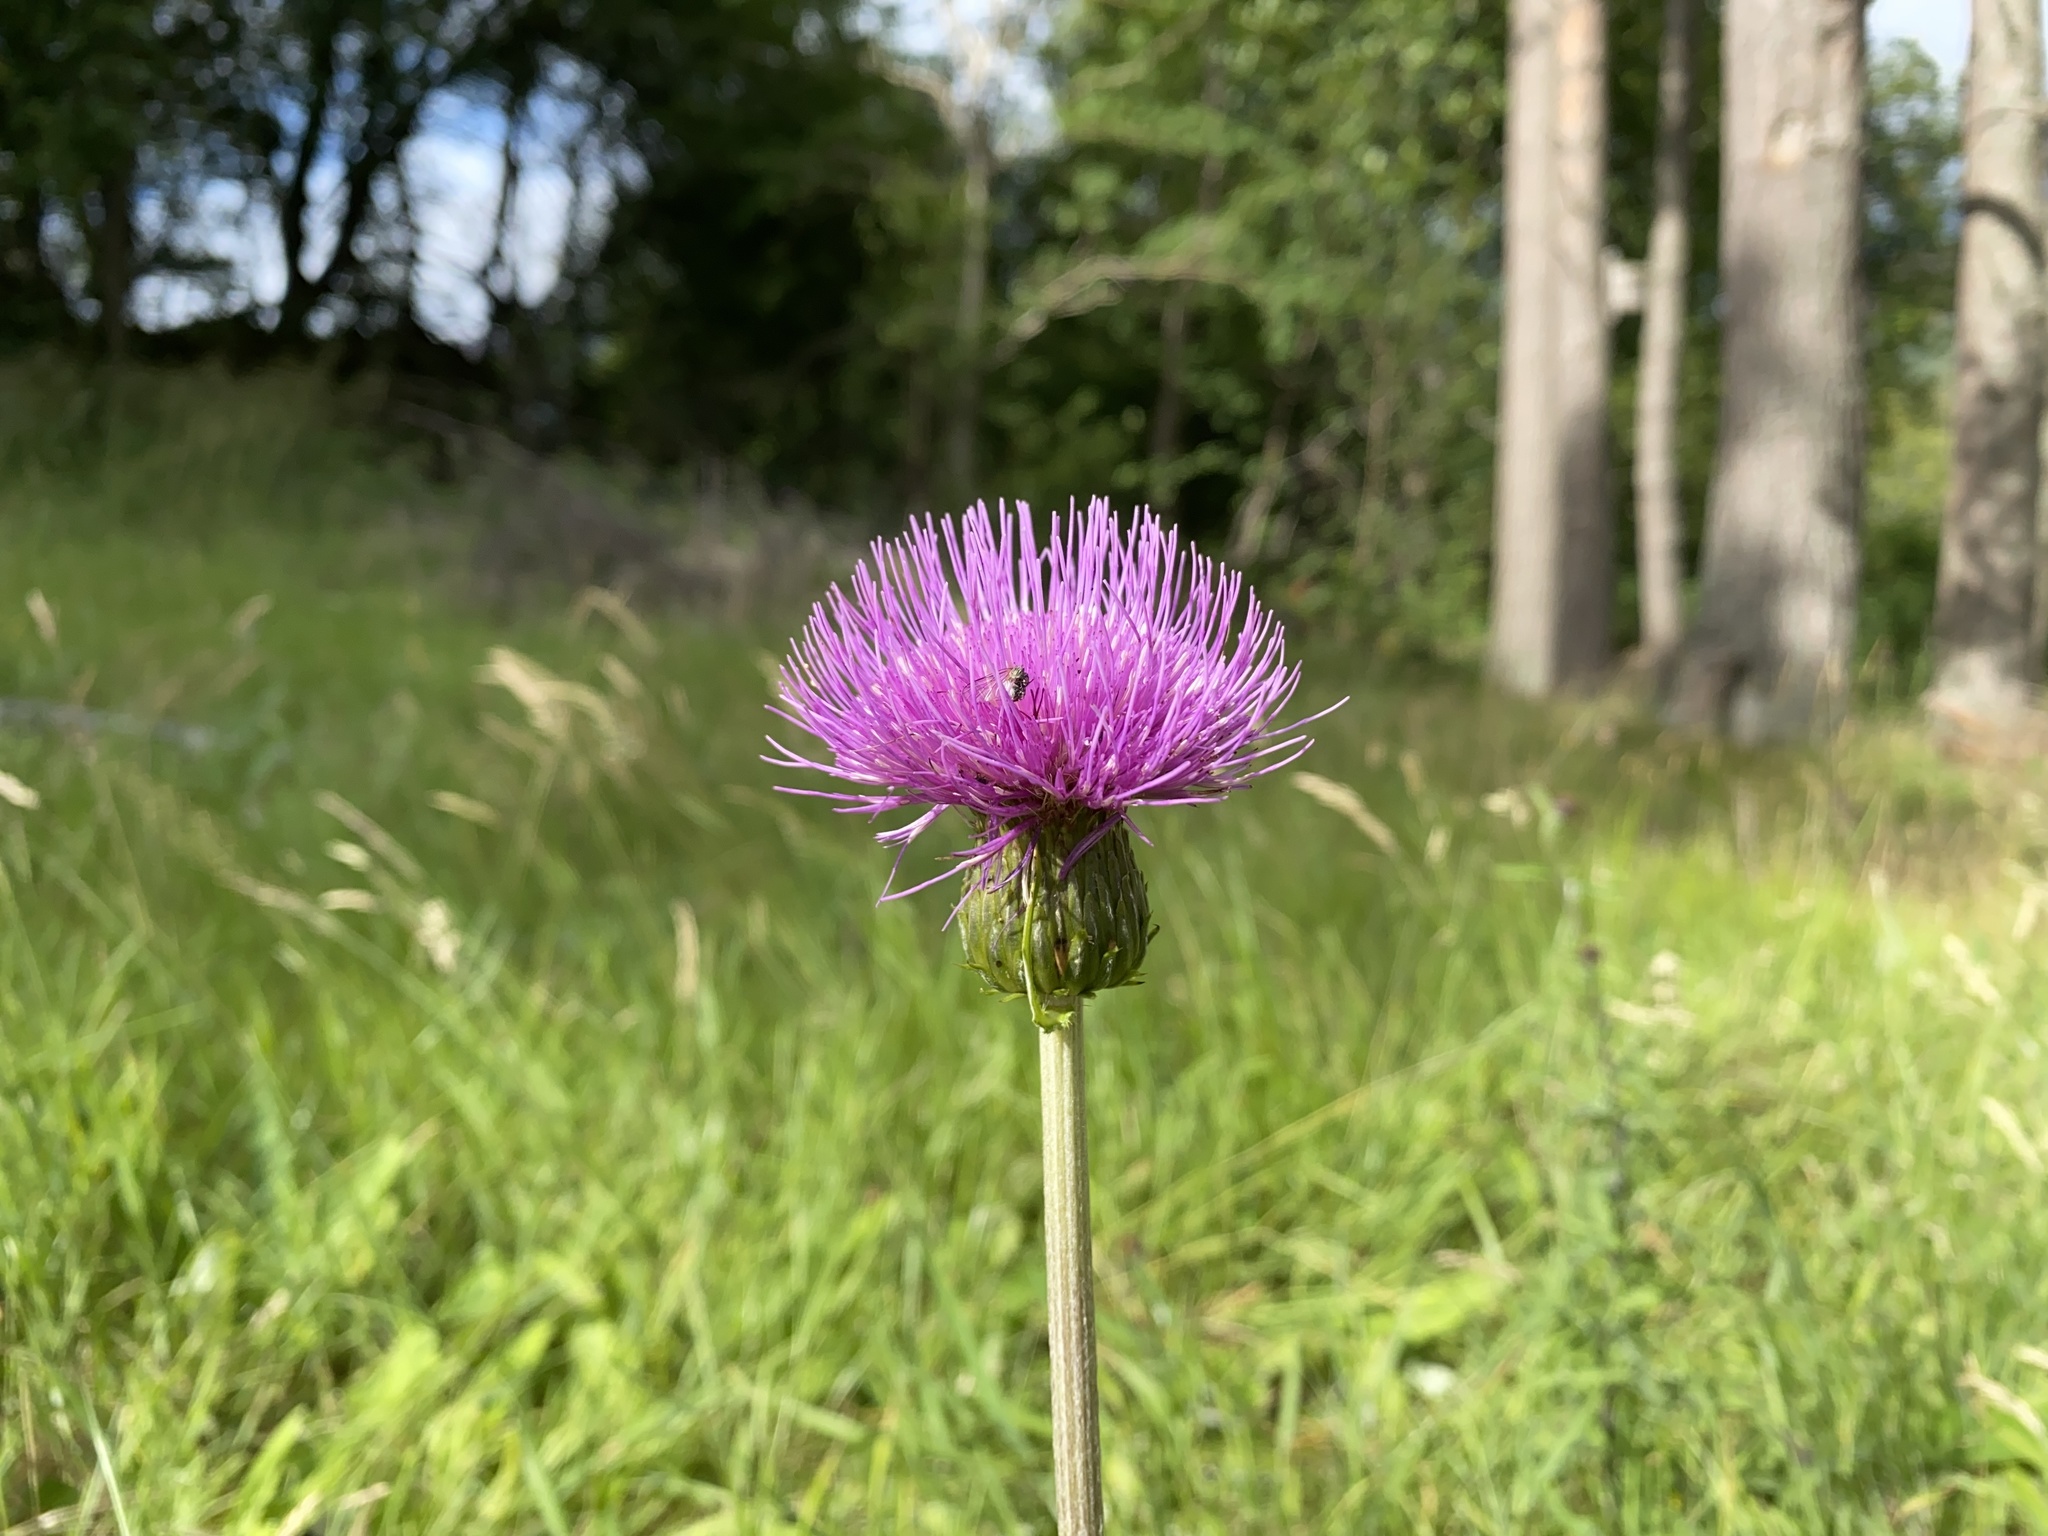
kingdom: Plantae
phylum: Tracheophyta
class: Magnoliopsida
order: Asterales
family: Asteraceae
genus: Cirsium
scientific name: Cirsium heterophyllum
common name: Melancholy thistle
